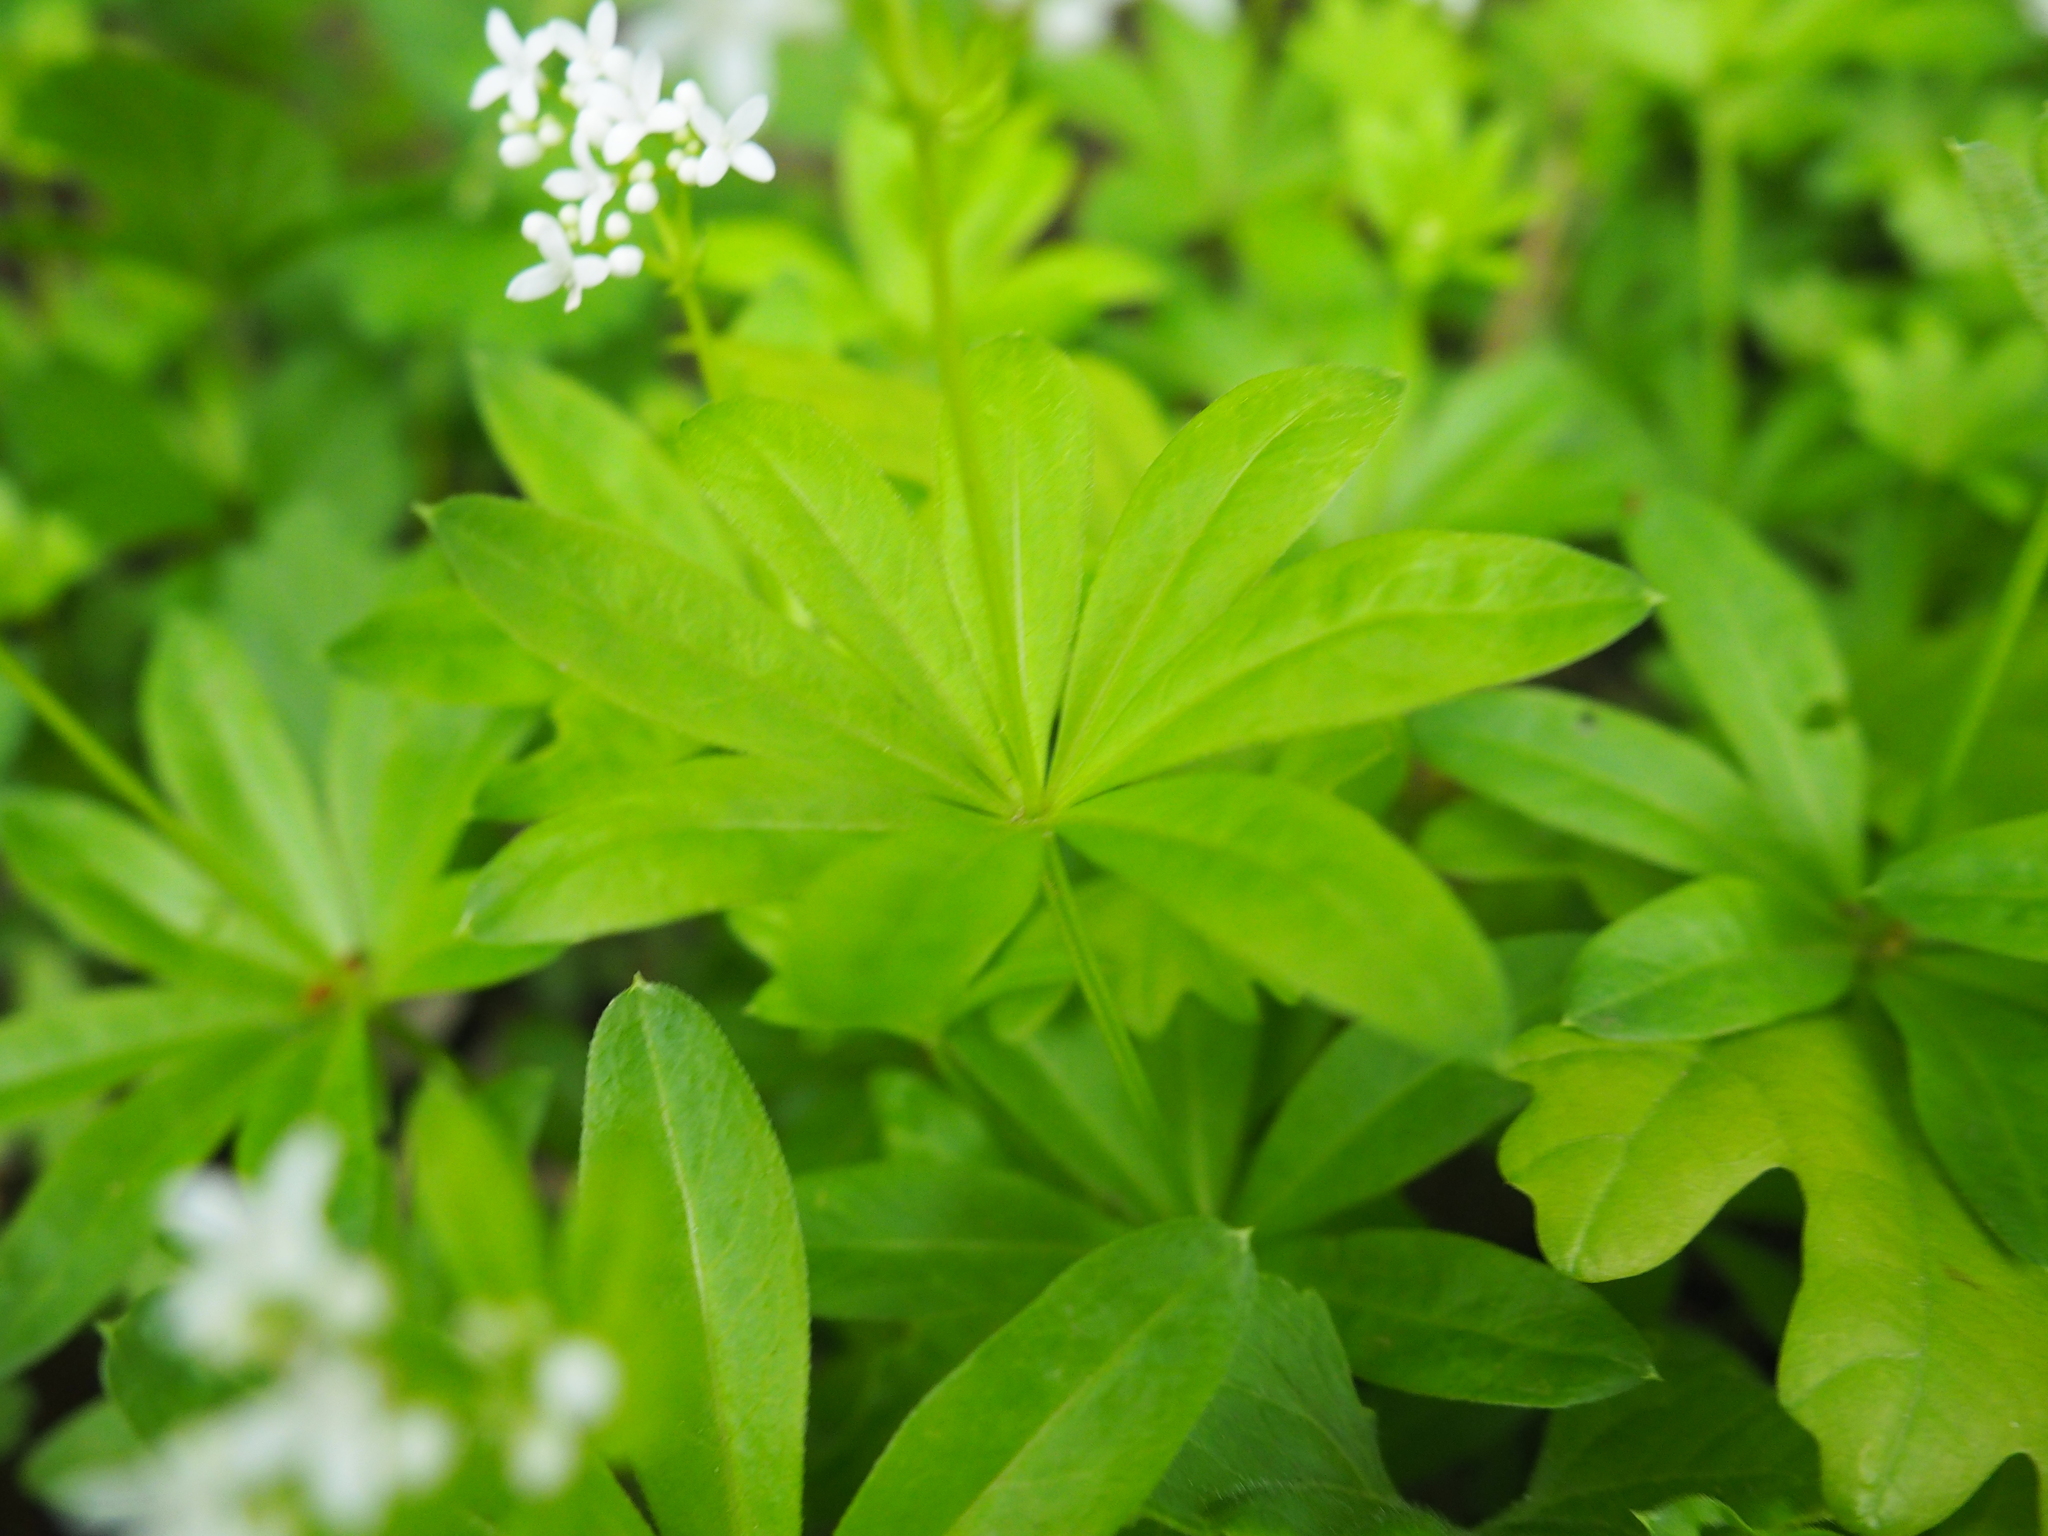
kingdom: Plantae
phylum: Tracheophyta
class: Magnoliopsida
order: Gentianales
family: Rubiaceae
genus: Galium
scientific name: Galium odoratum
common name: Sweet woodruff
